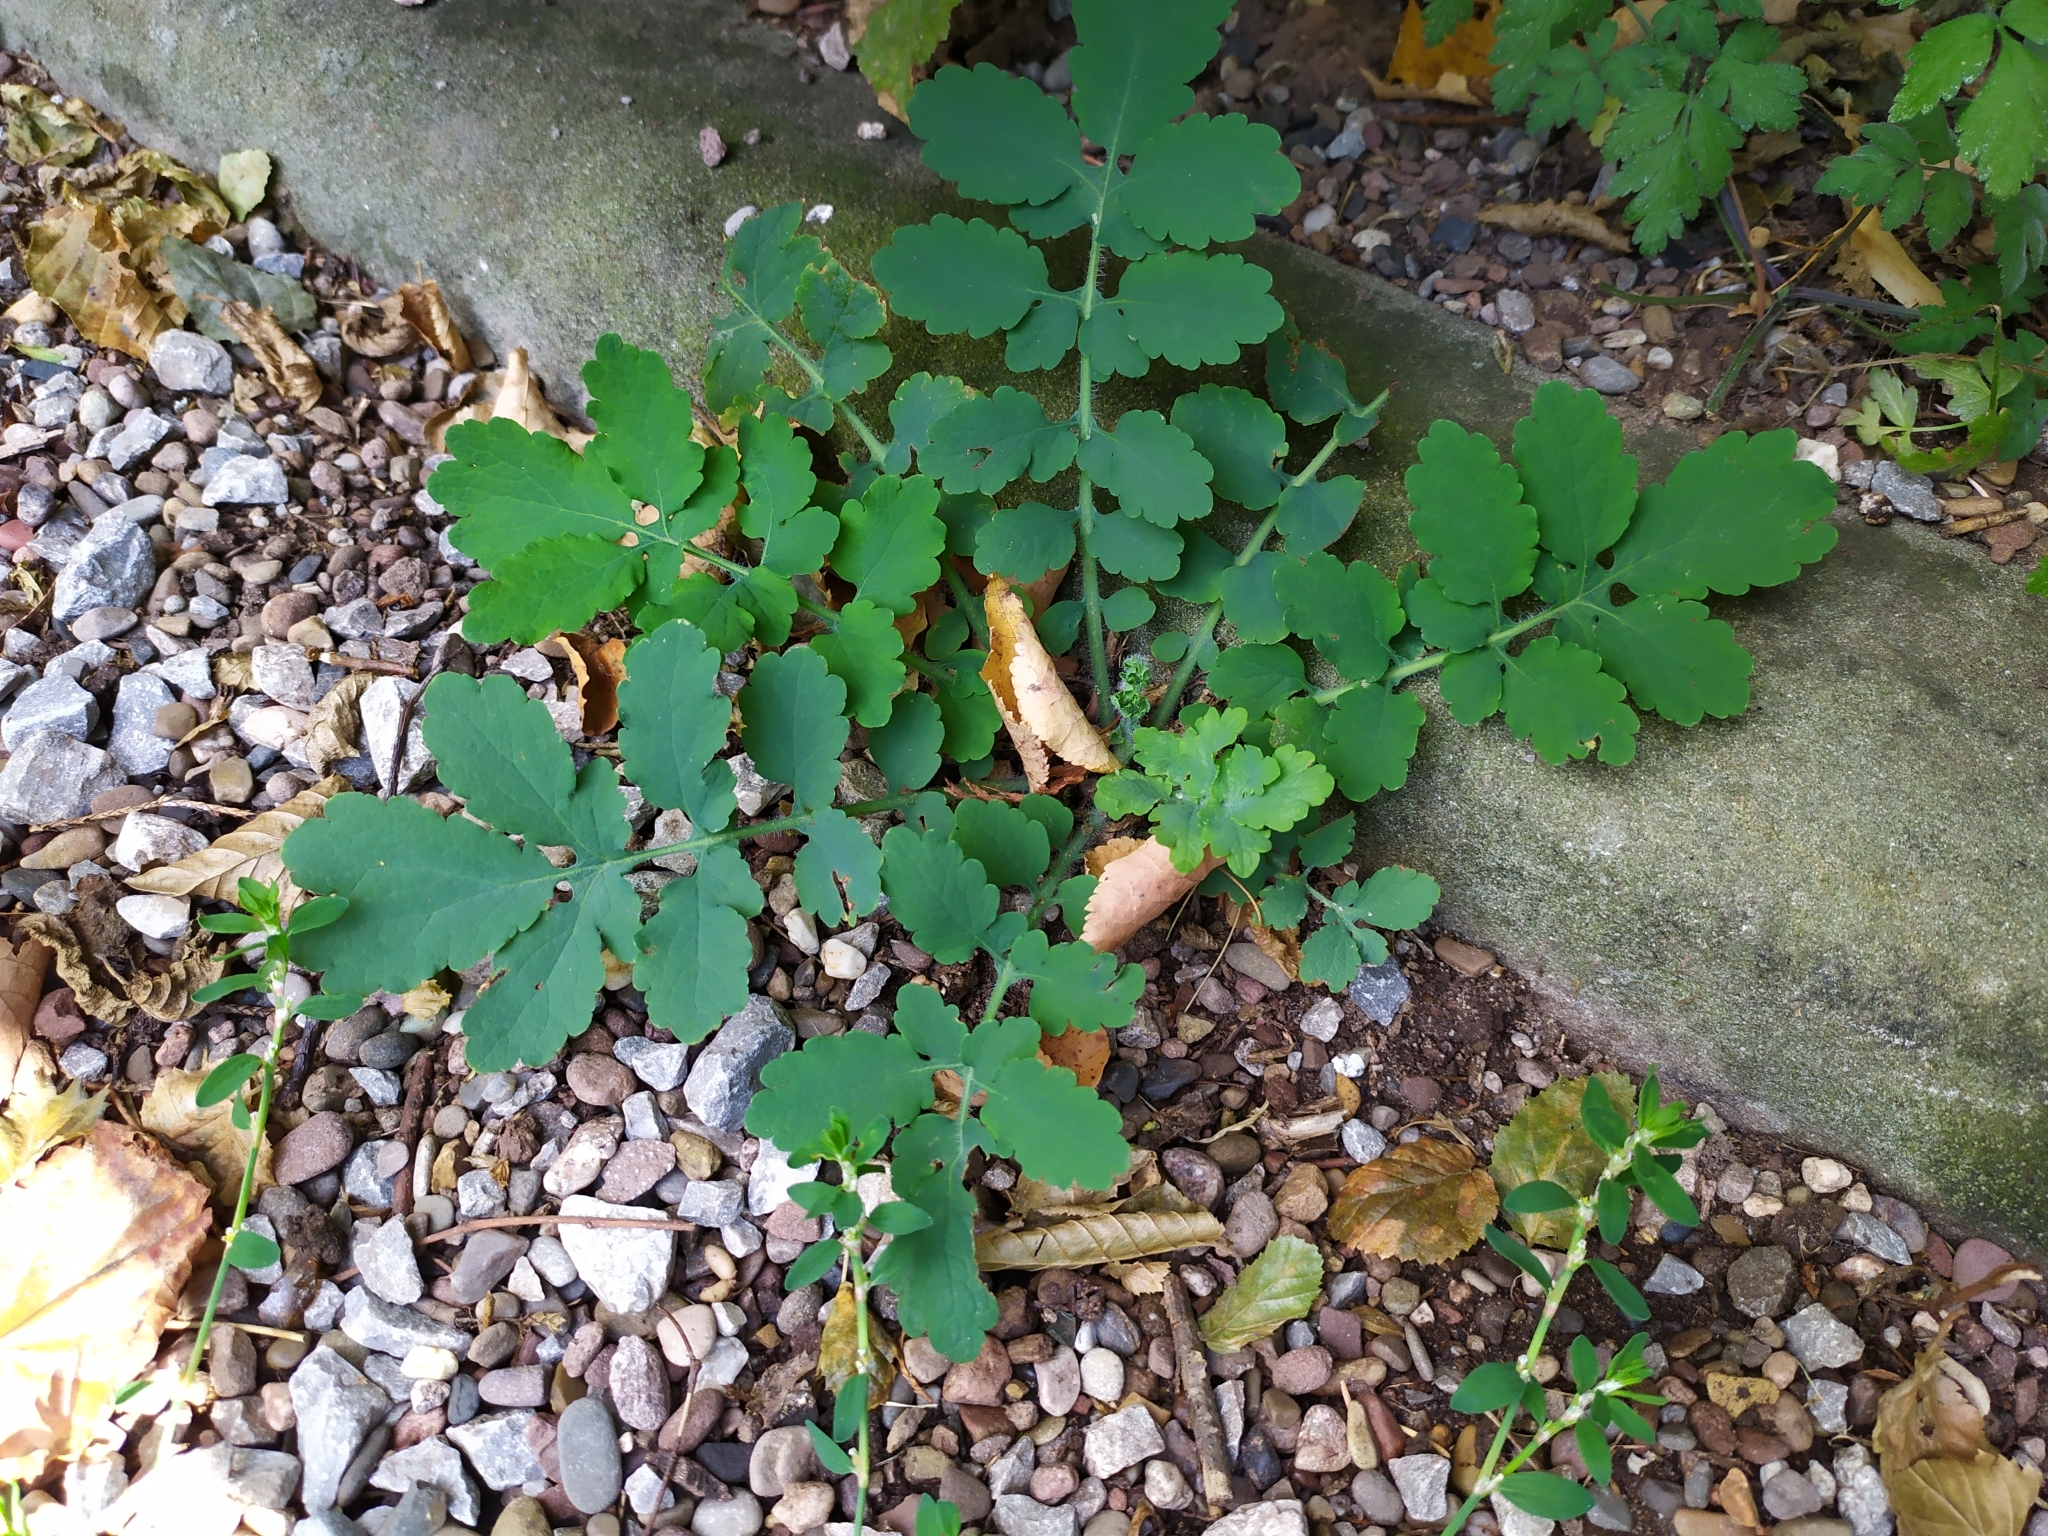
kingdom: Plantae
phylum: Tracheophyta
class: Magnoliopsida
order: Ranunculales
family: Papaveraceae
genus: Chelidonium
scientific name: Chelidonium majus
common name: Greater celandine
